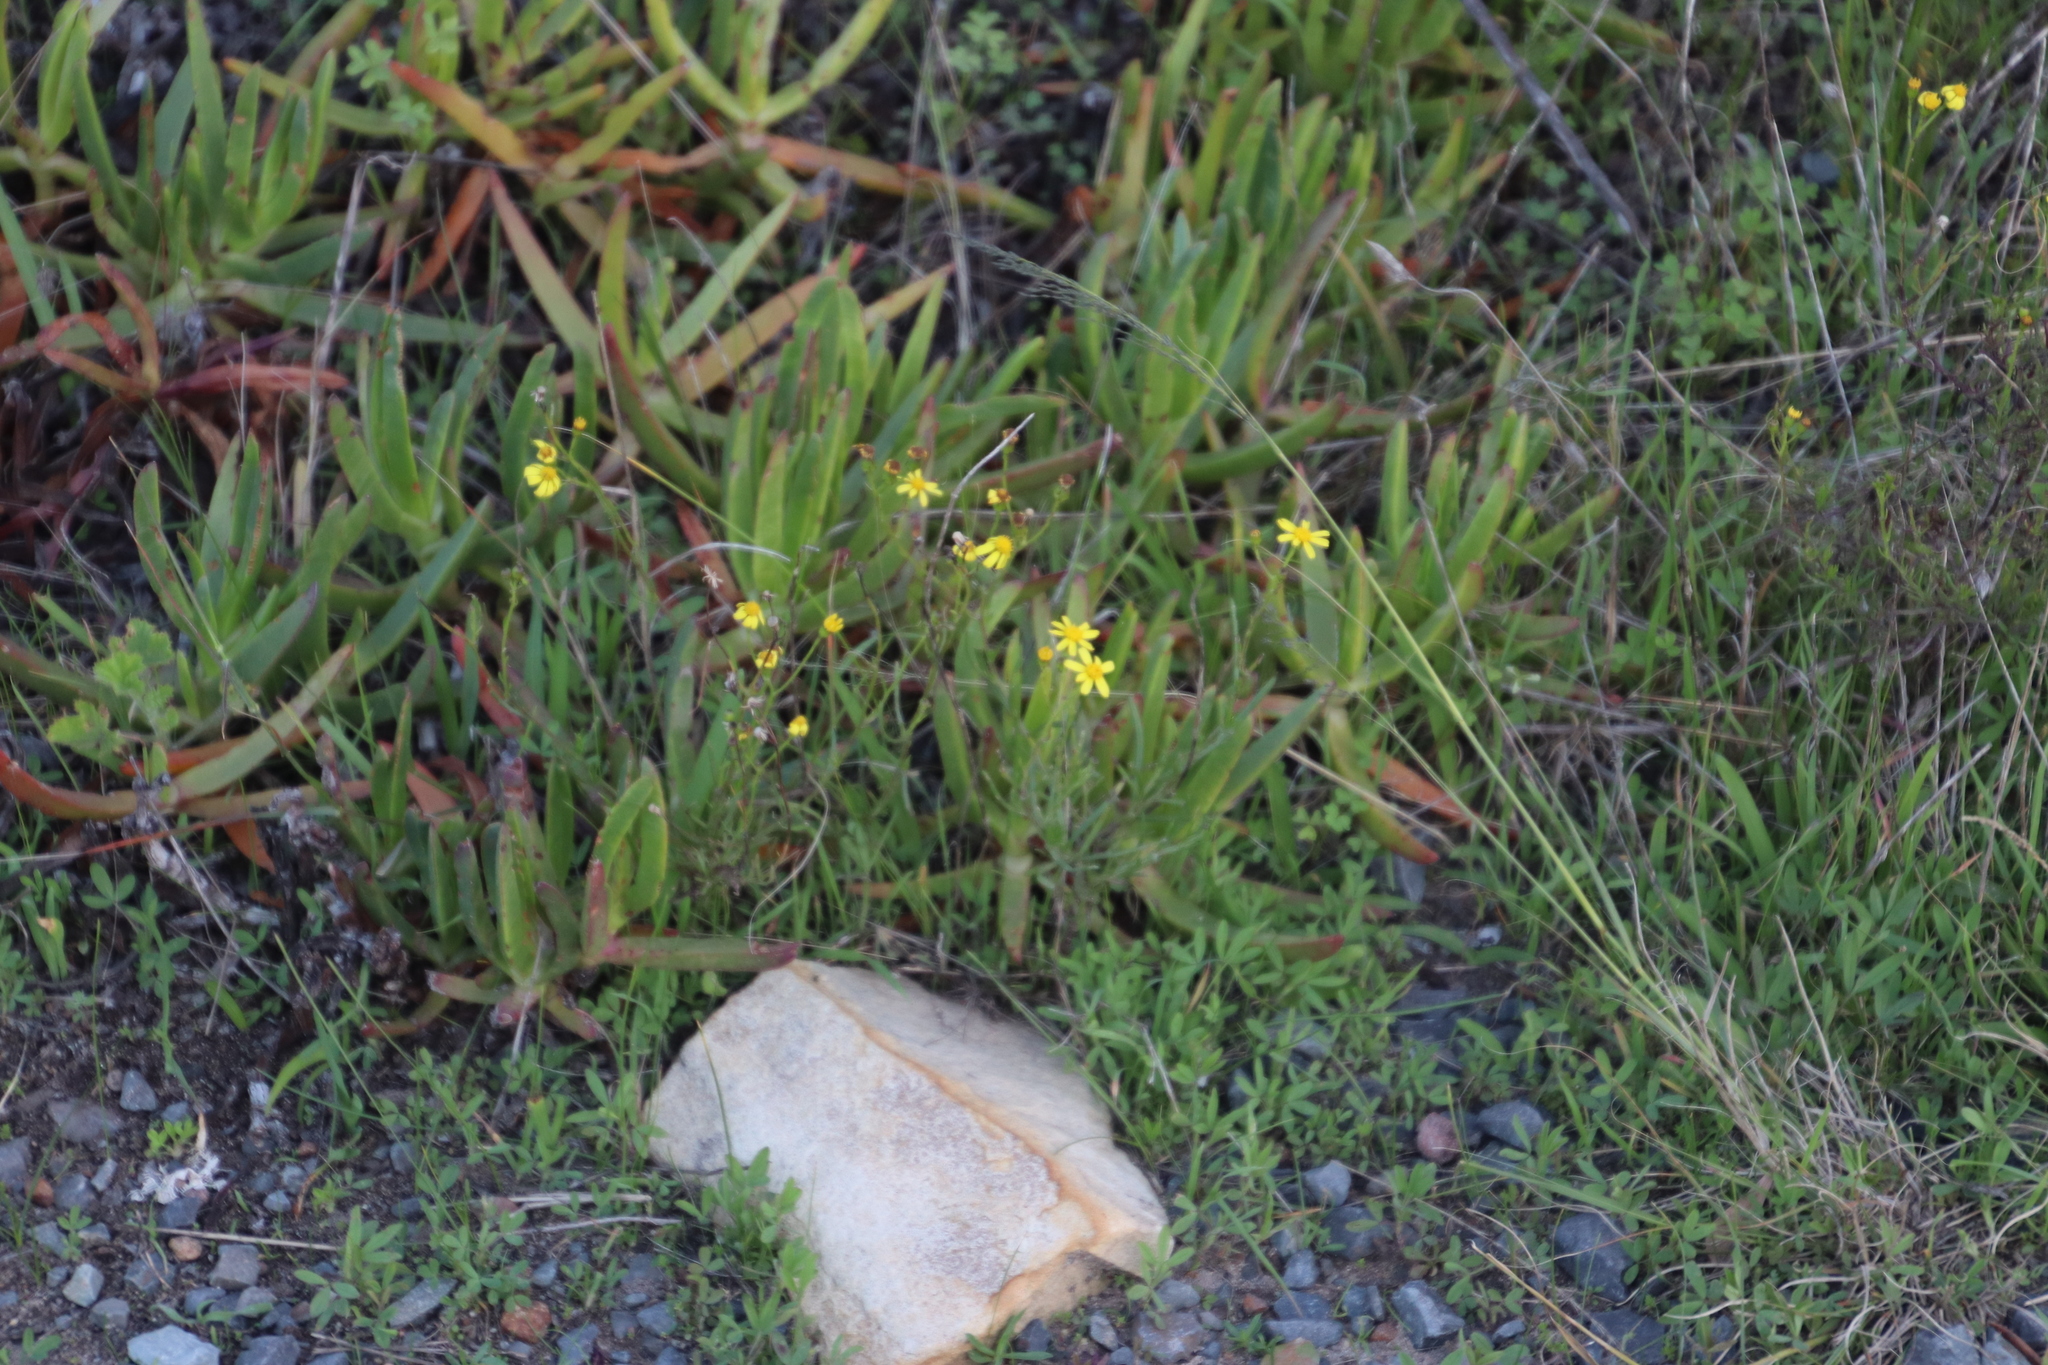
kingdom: Plantae
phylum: Tracheophyta
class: Magnoliopsida
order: Asterales
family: Asteraceae
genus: Senecio
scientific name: Senecio burchellii
